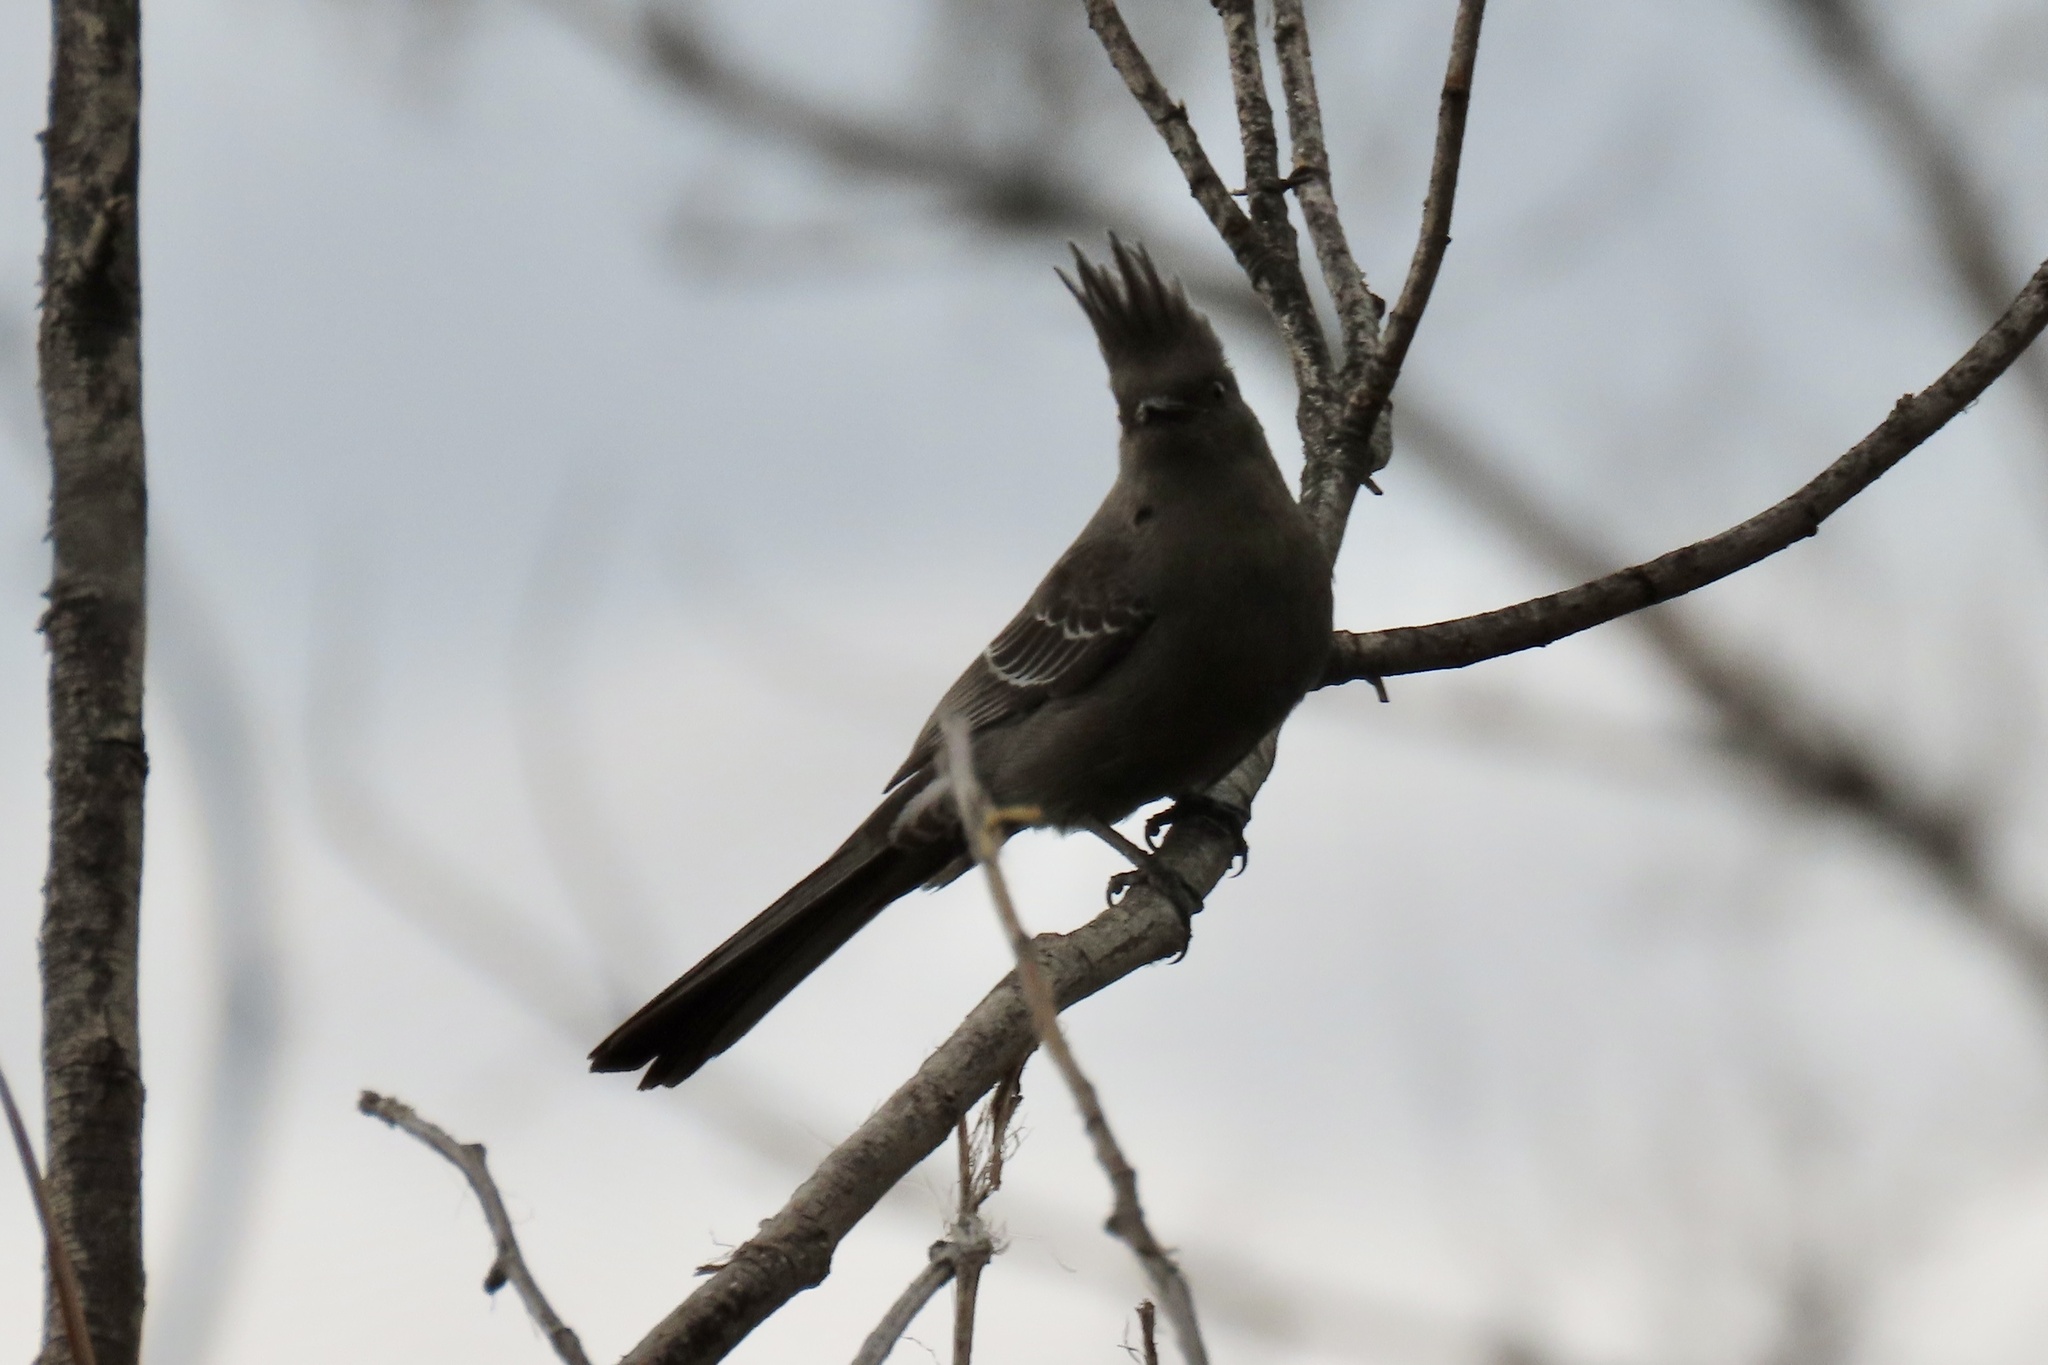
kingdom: Animalia
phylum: Chordata
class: Aves
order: Passeriformes
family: Ptilogonatidae
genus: Phainopepla
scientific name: Phainopepla nitens
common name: Phainopepla
